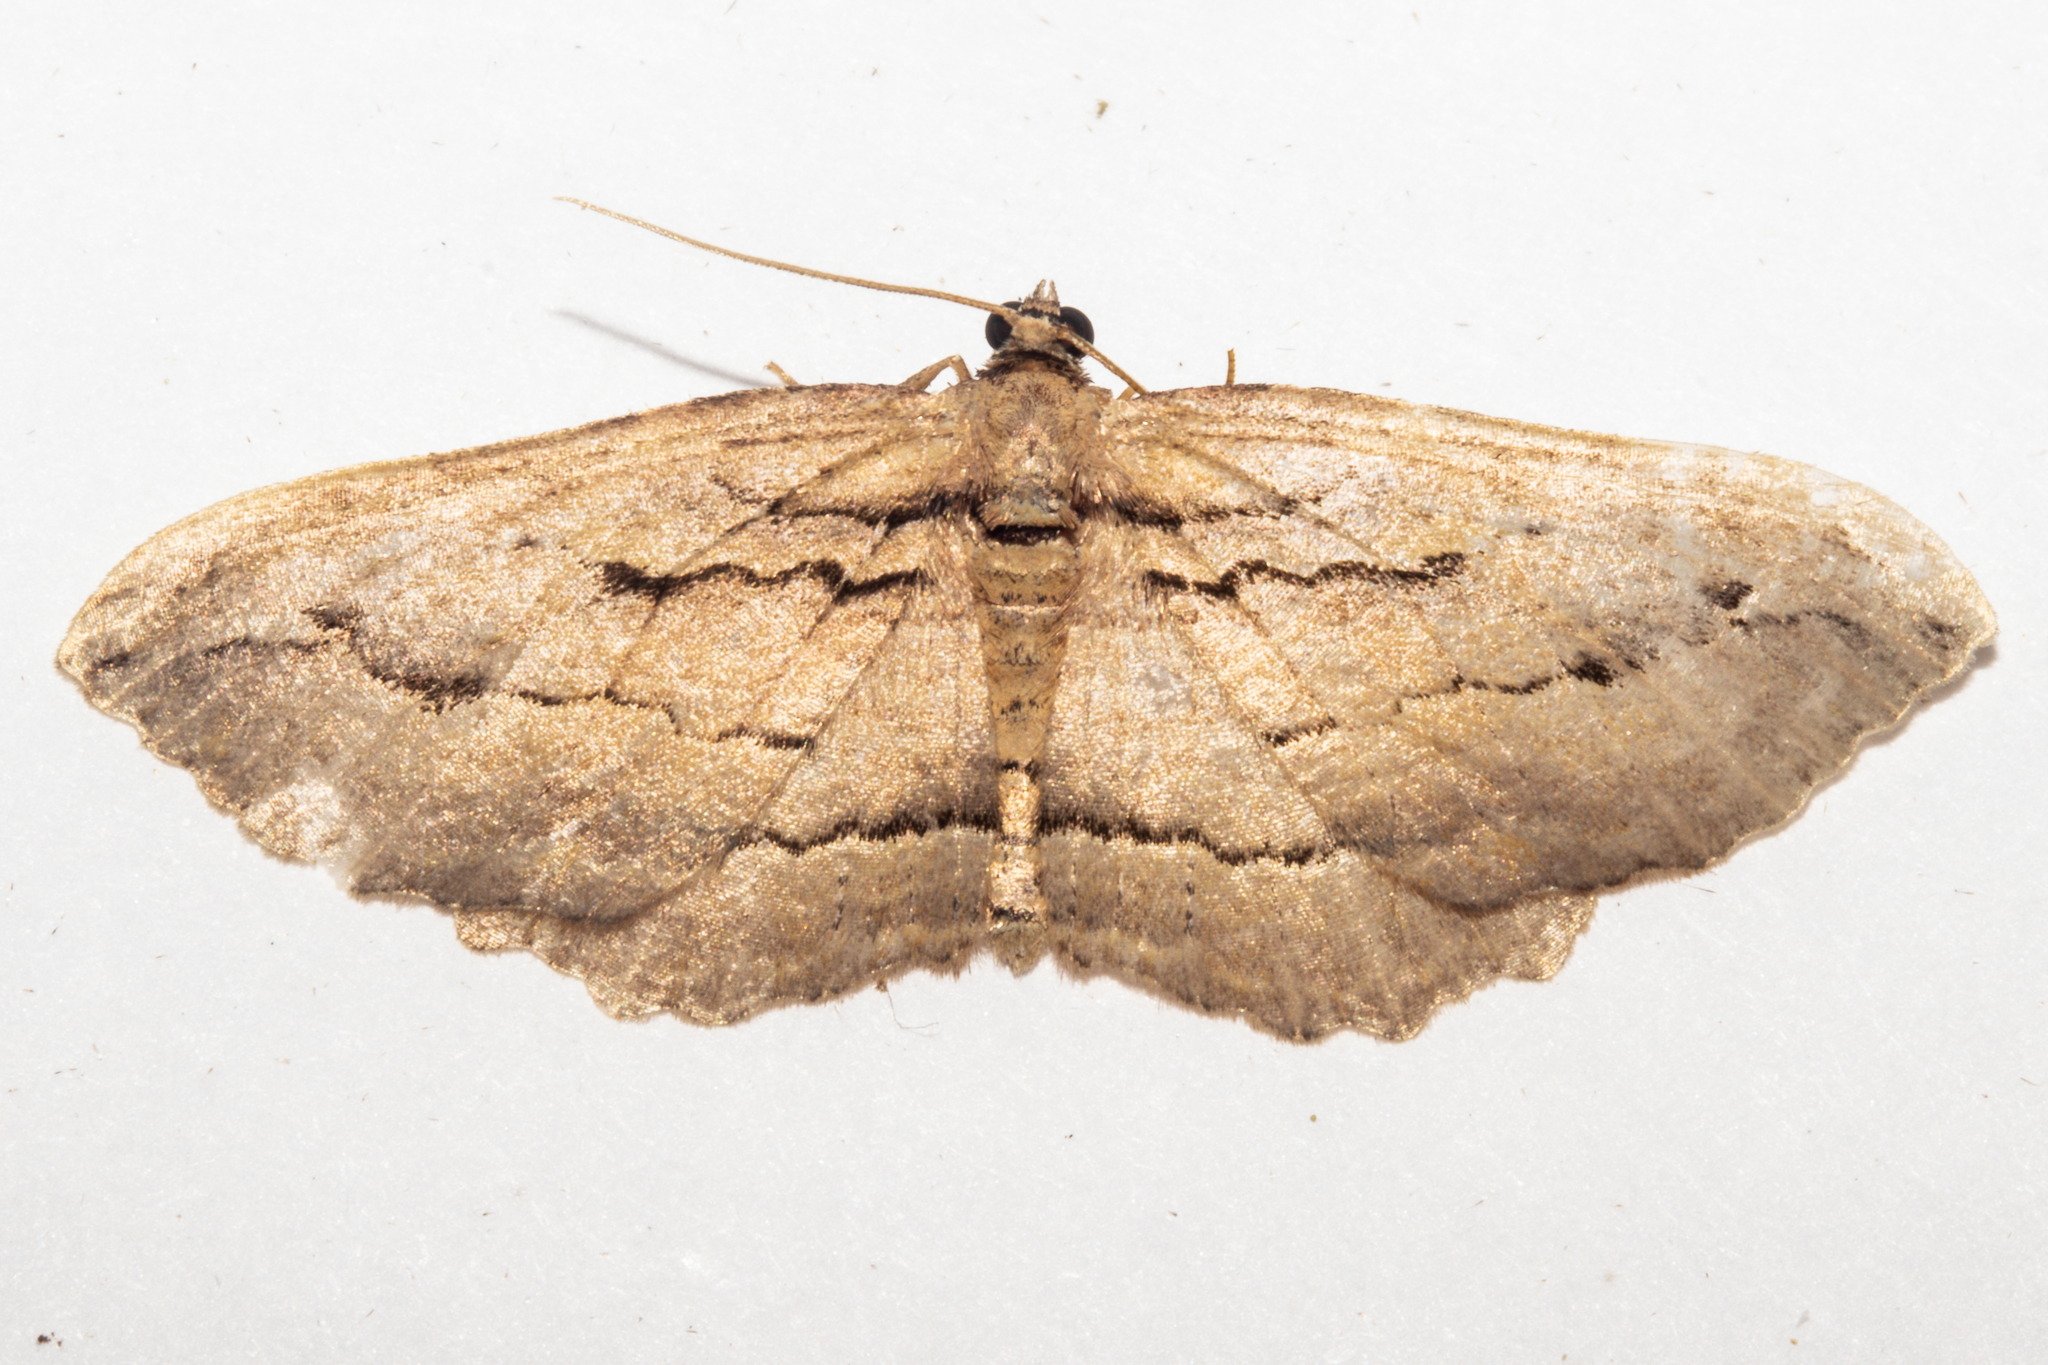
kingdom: Animalia
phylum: Arthropoda
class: Insecta
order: Lepidoptera
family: Geometridae
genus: Austrocidaria
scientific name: Austrocidaria gobiata
